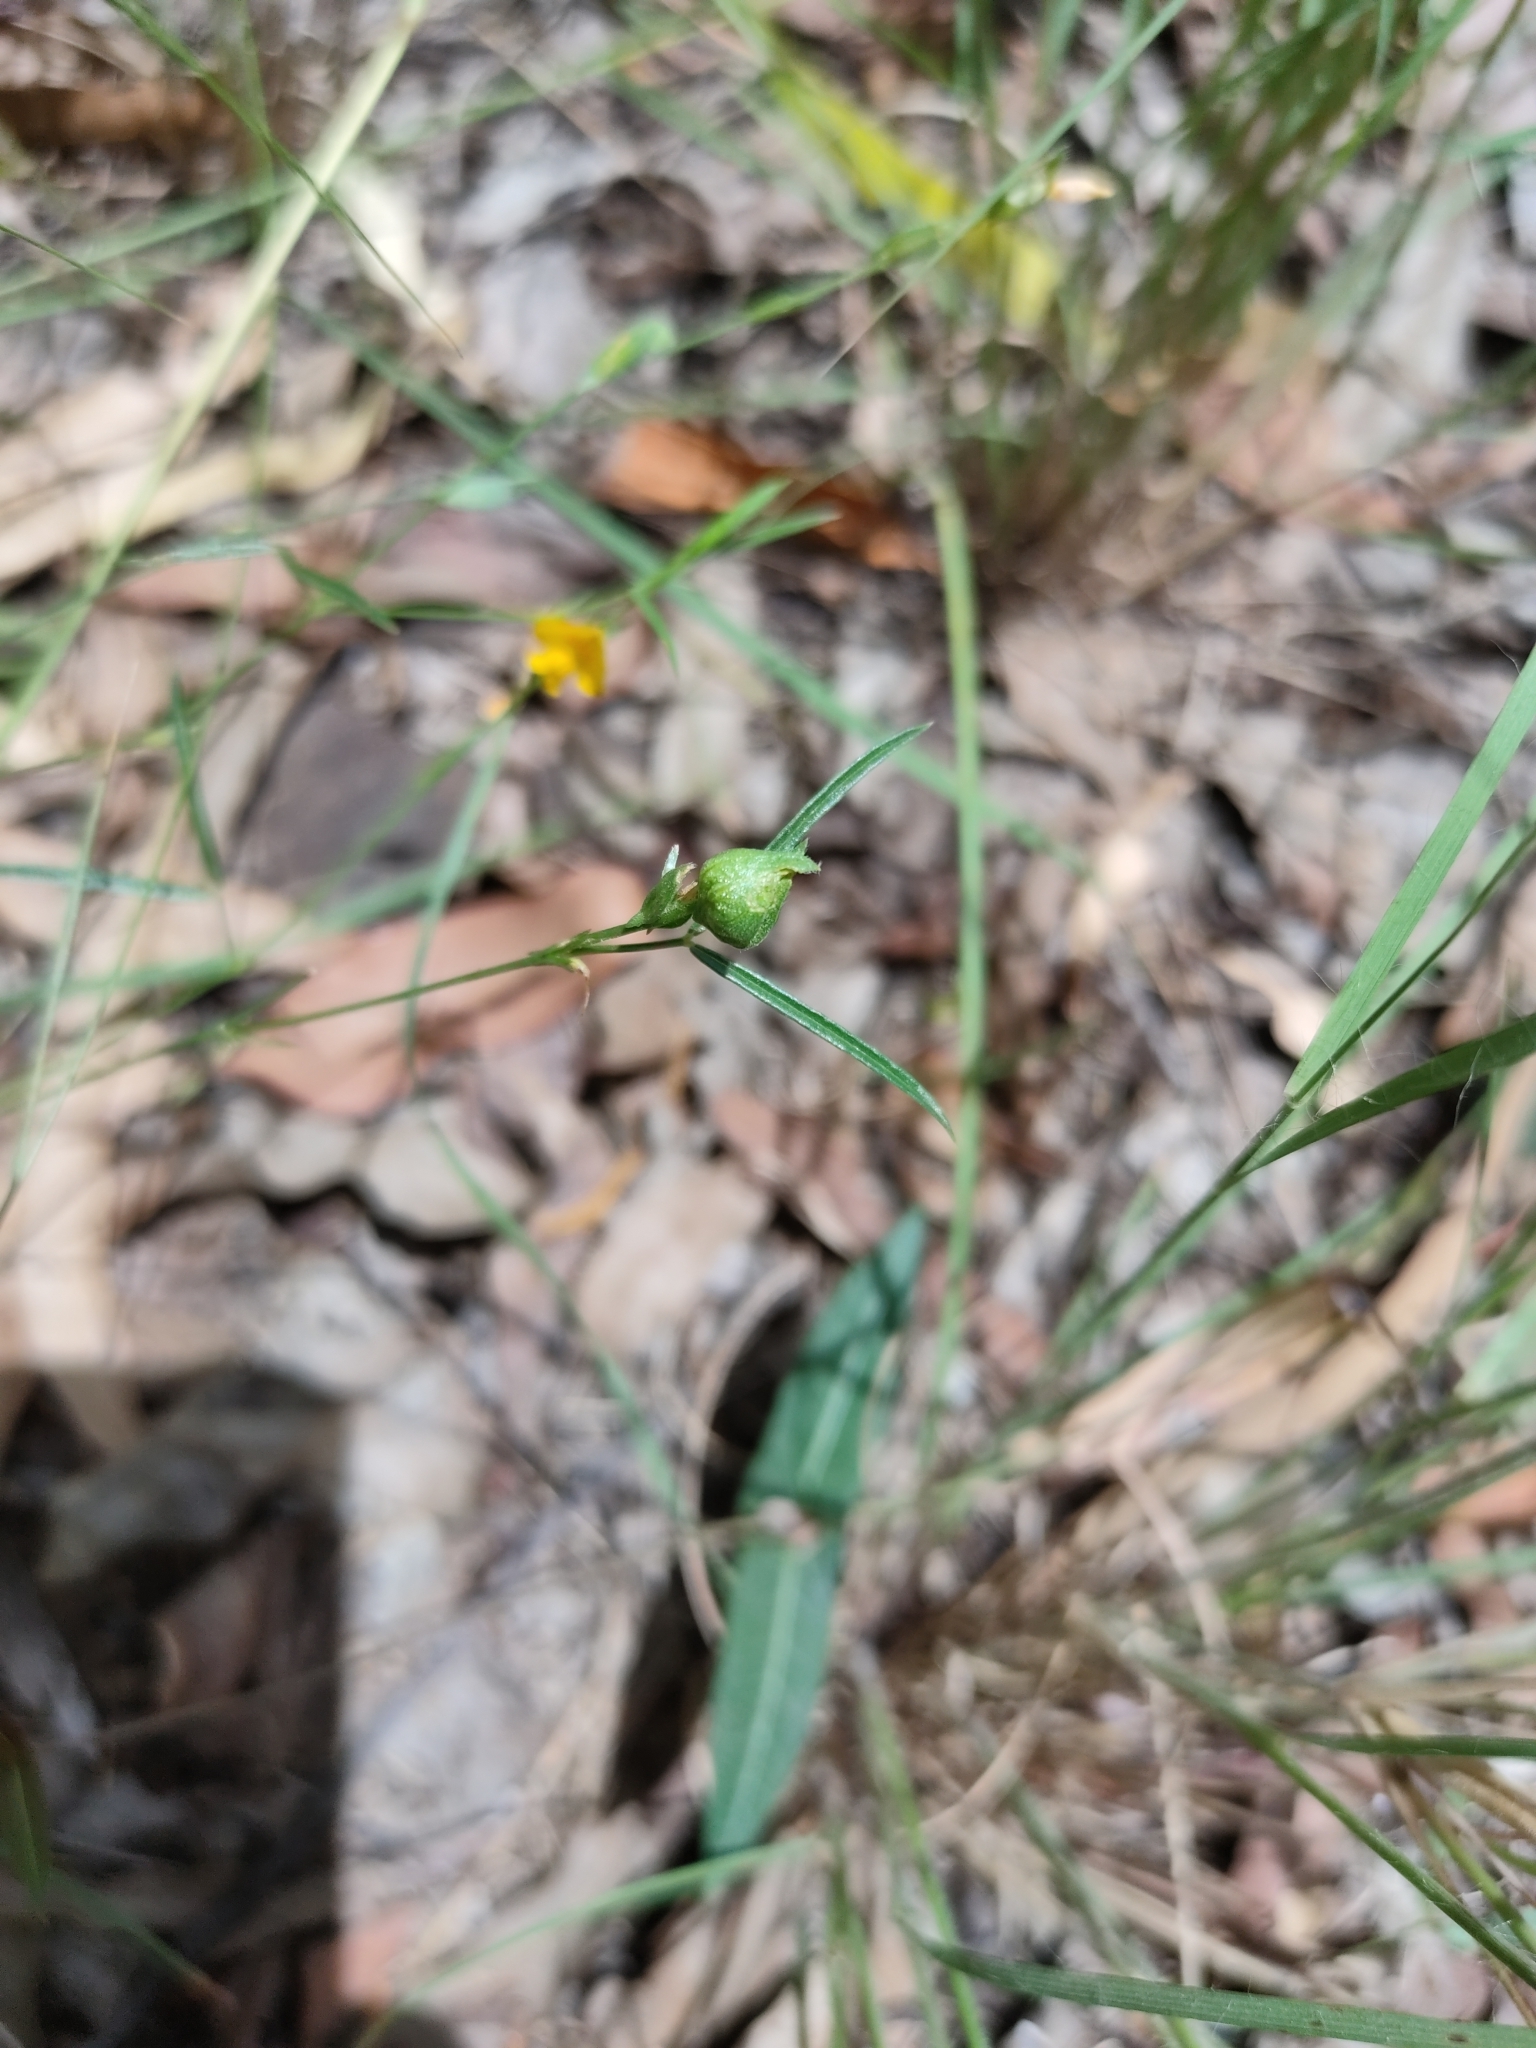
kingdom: Plantae
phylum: Tracheophyta
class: Magnoliopsida
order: Fabales
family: Fabaceae
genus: Zornia
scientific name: Zornia dyctiocarpa
